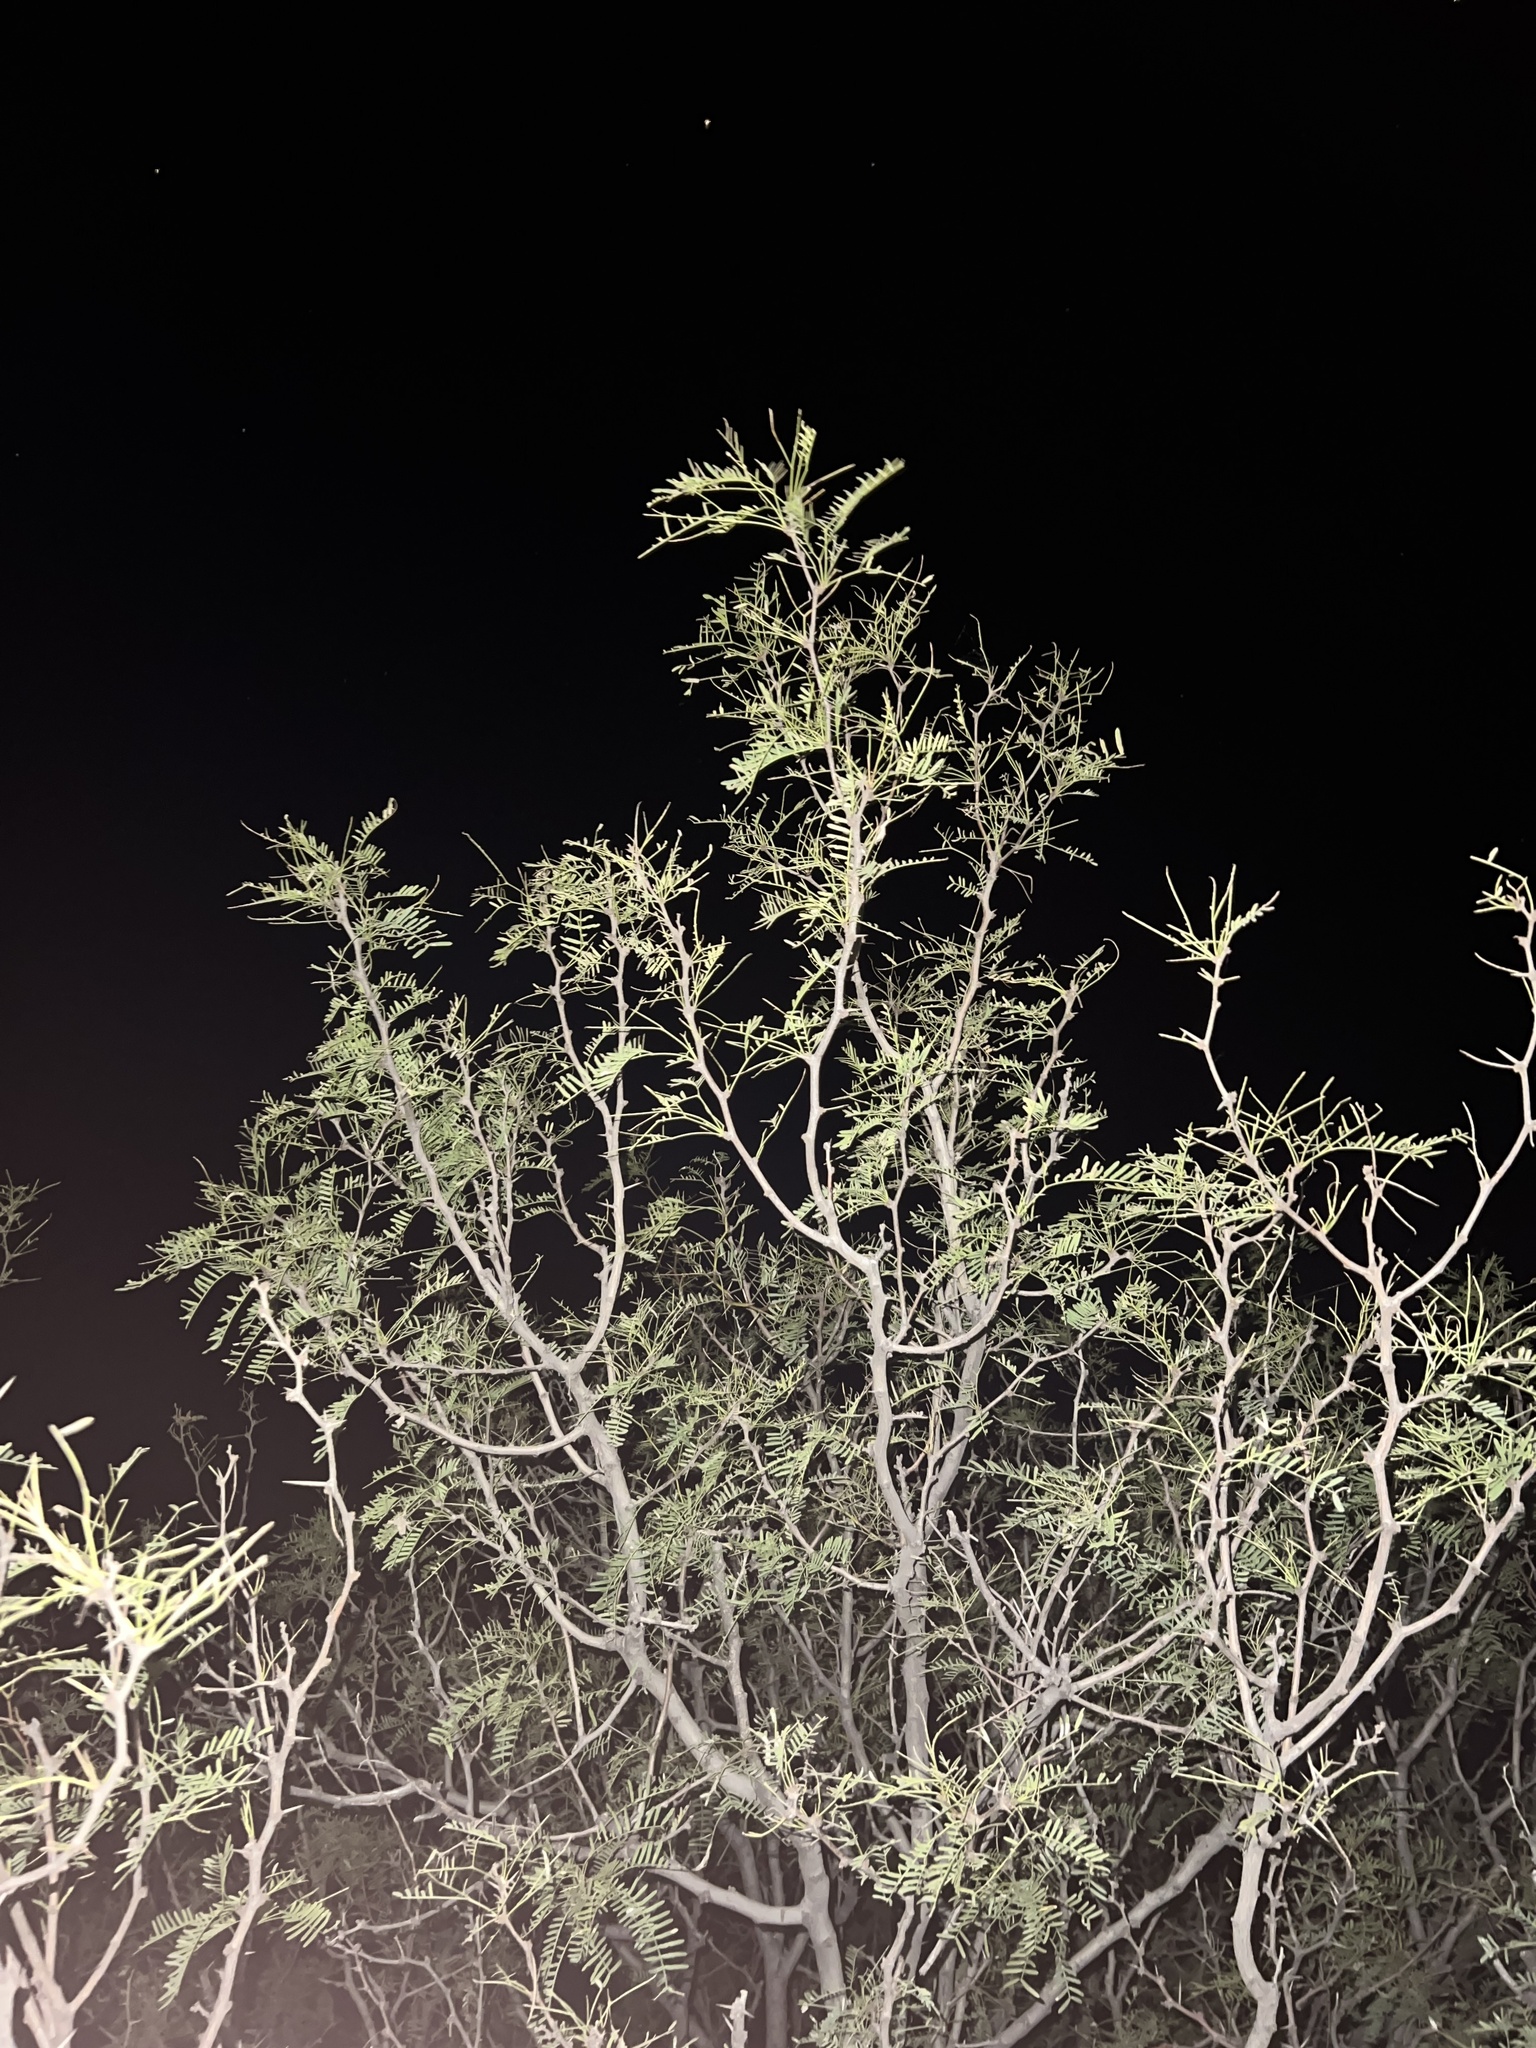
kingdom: Plantae
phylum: Tracheophyta
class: Magnoliopsida
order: Fabales
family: Fabaceae
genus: Prosopis
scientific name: Prosopis glandulosa
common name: Honey mesquite
